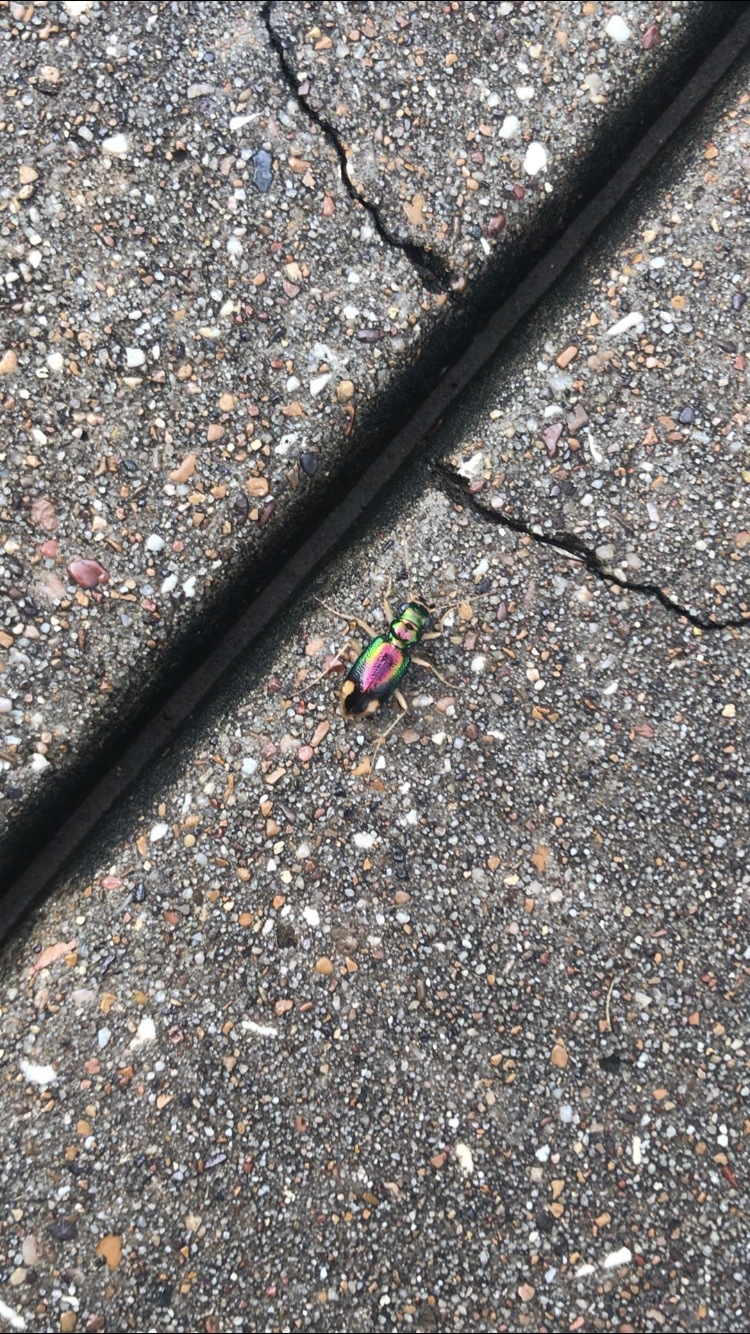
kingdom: Animalia
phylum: Arthropoda
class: Insecta
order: Coleoptera
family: Carabidae
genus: Tetracha
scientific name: Tetracha carolina
